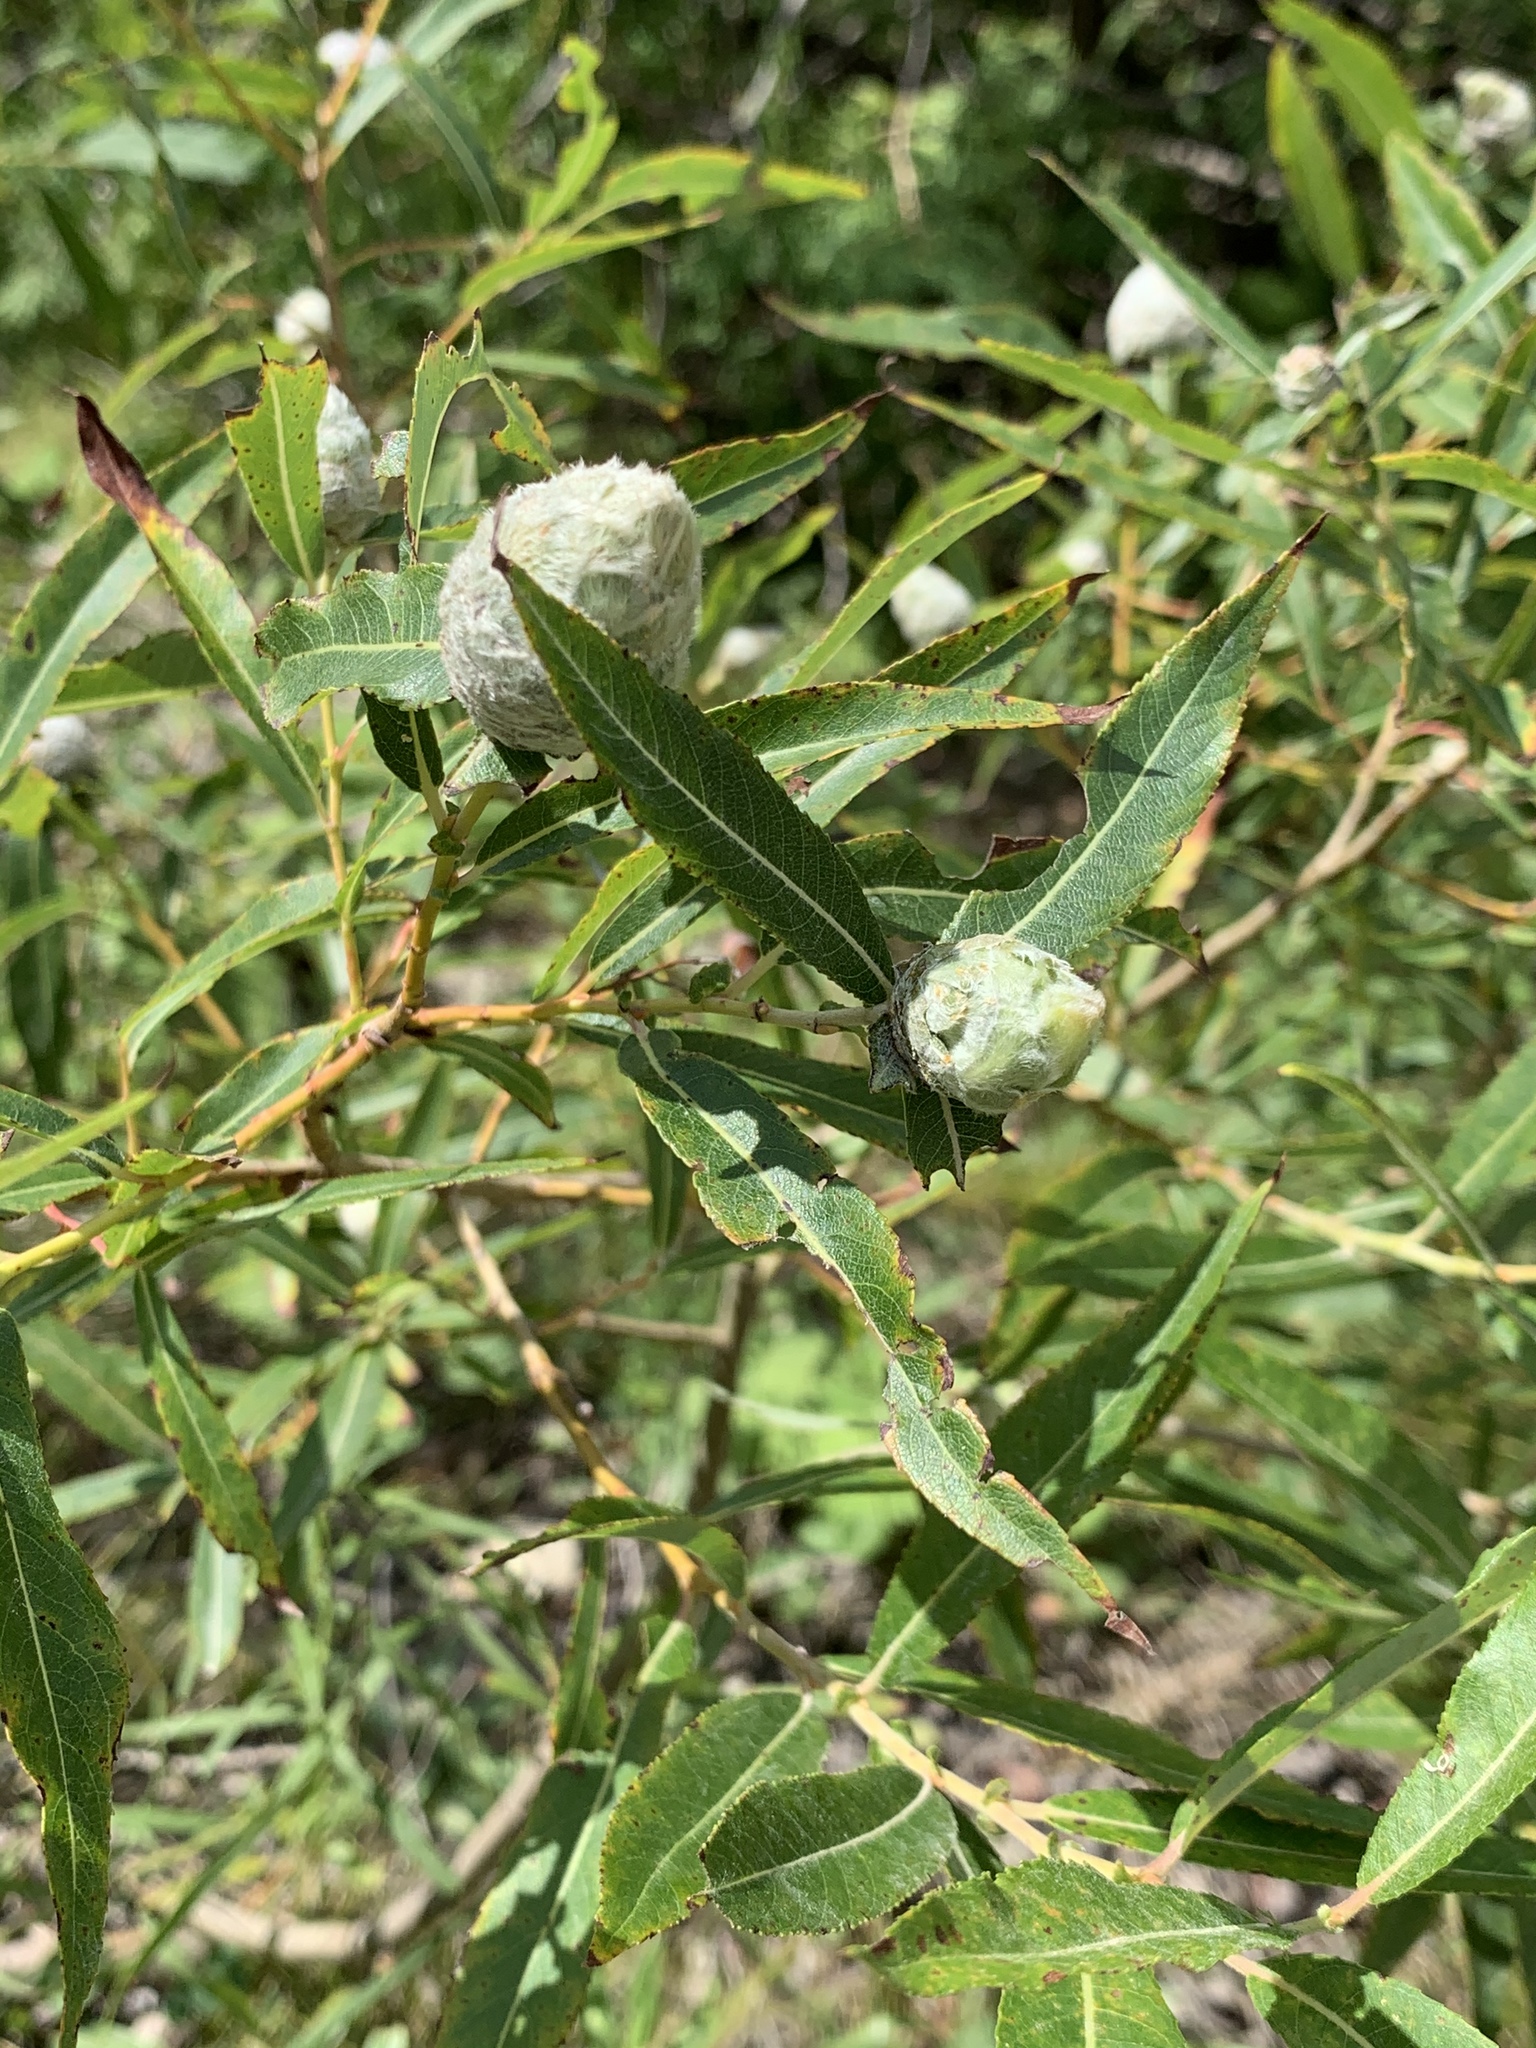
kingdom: Animalia
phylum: Arthropoda
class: Insecta
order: Diptera
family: Cecidomyiidae
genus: Rabdophaga
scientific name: Rabdophaga strobiloides
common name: Willow pinecone gall midge
